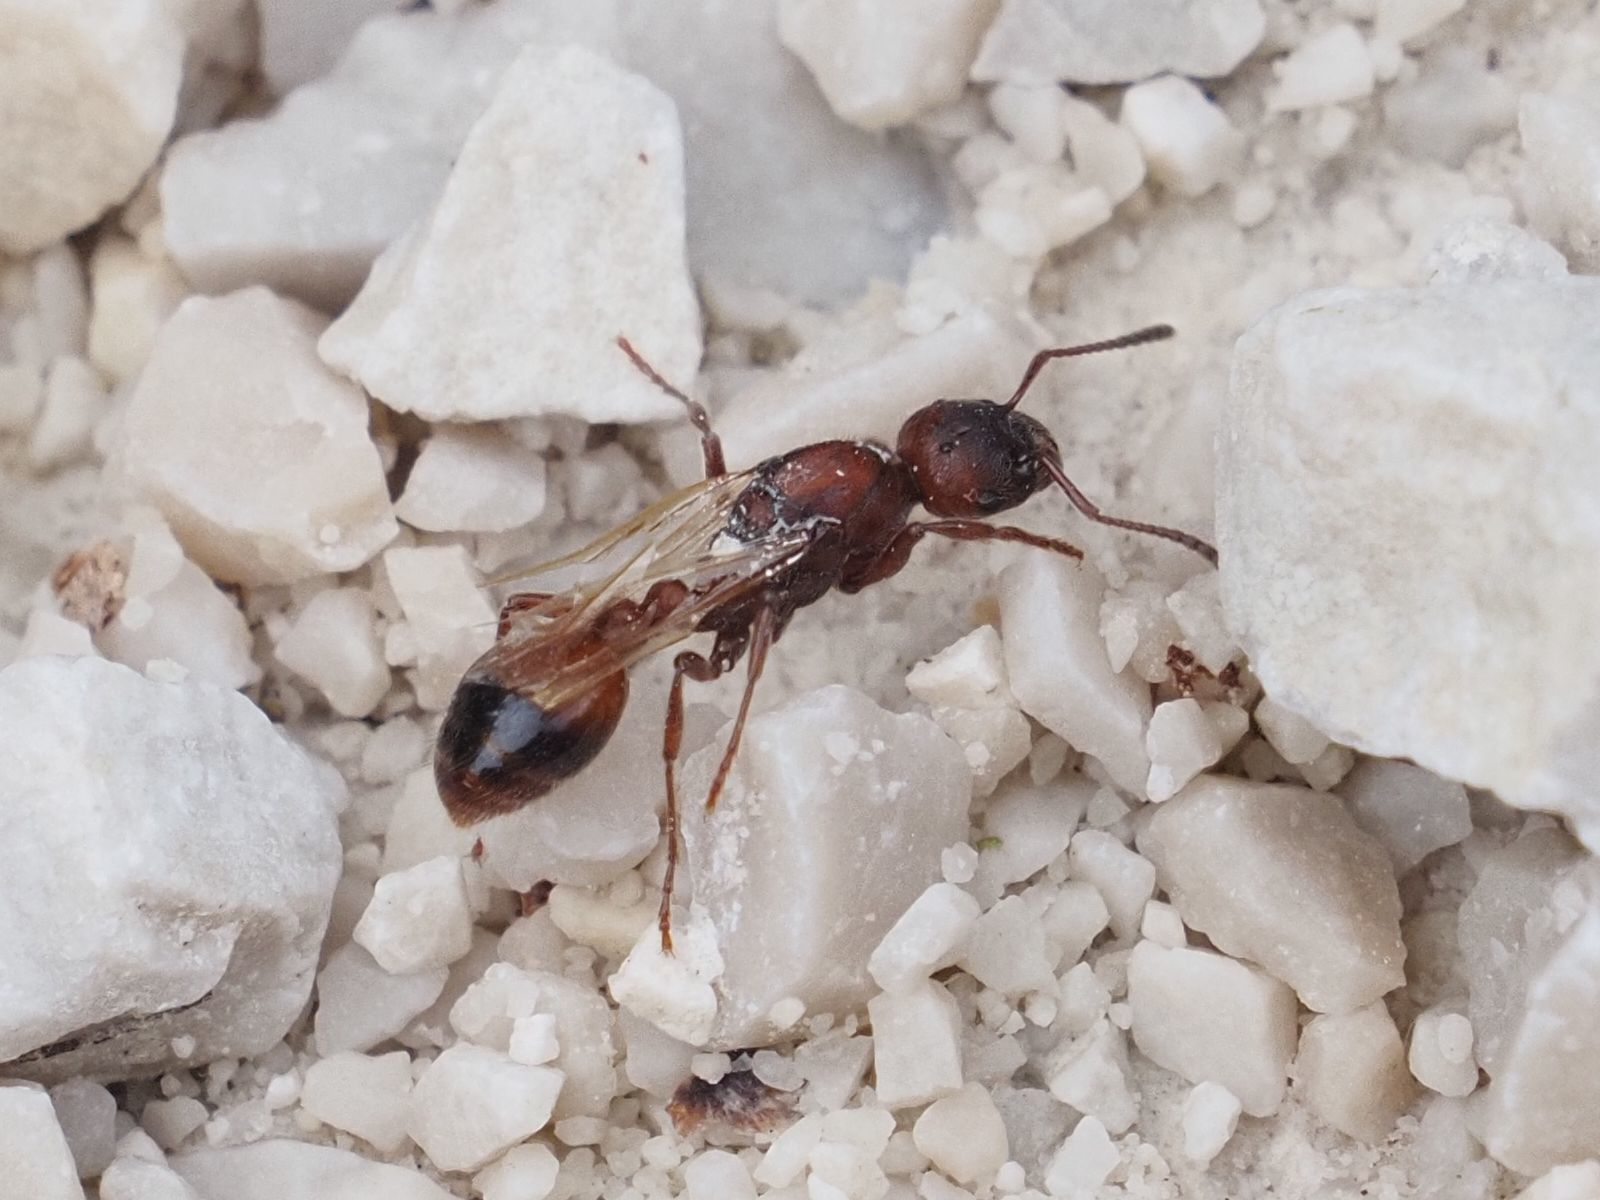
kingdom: Animalia
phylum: Arthropoda
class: Insecta
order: Hymenoptera
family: Formicidae
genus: Manica
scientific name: Manica rubida
